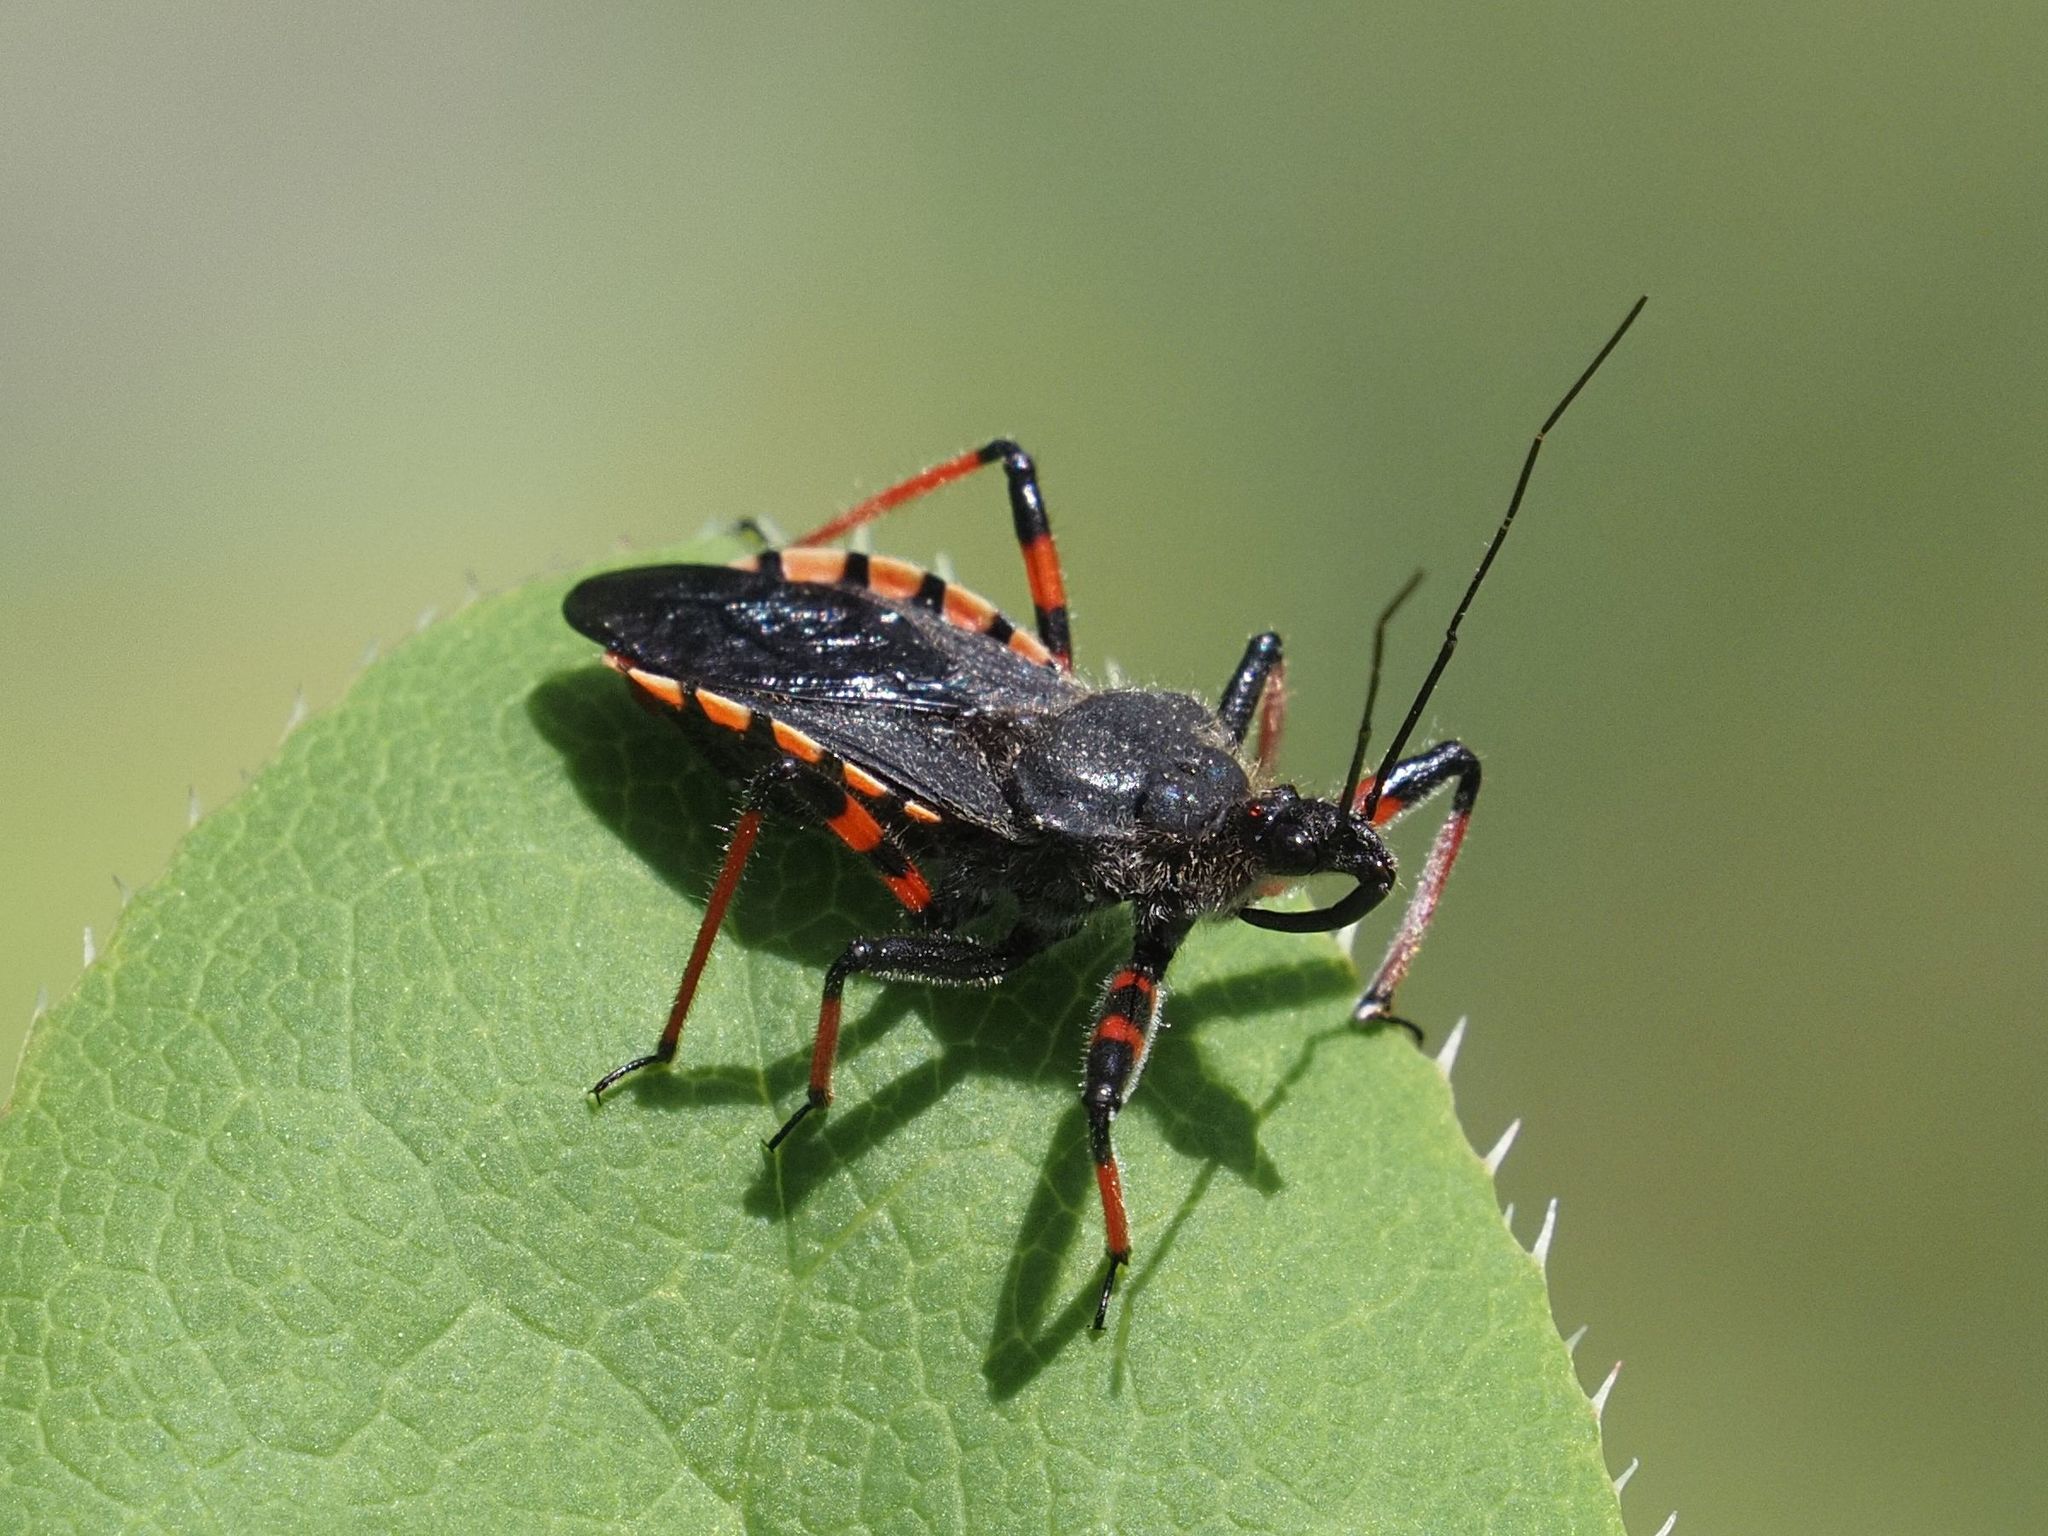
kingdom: Animalia
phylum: Arthropoda
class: Insecta
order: Hemiptera
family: Reduviidae
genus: Rhynocoris
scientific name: Rhynocoris annulatus
